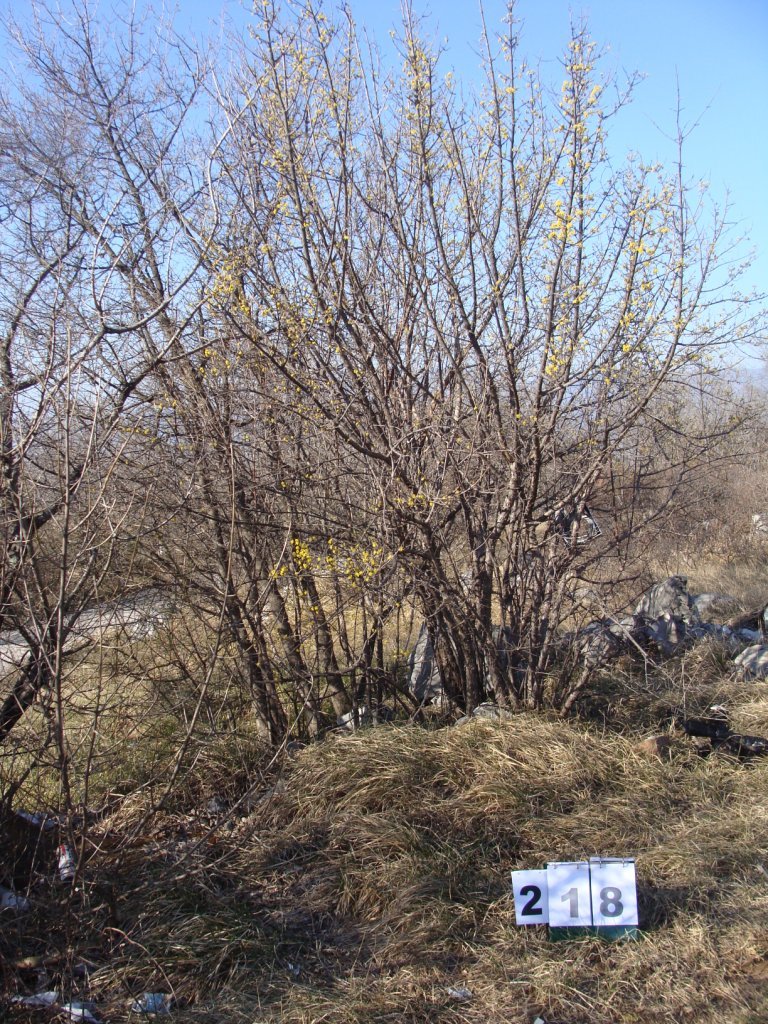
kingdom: Plantae
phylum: Tracheophyta
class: Magnoliopsida
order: Cornales
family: Cornaceae
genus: Cornus
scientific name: Cornus mas
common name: Cornelian-cherry
